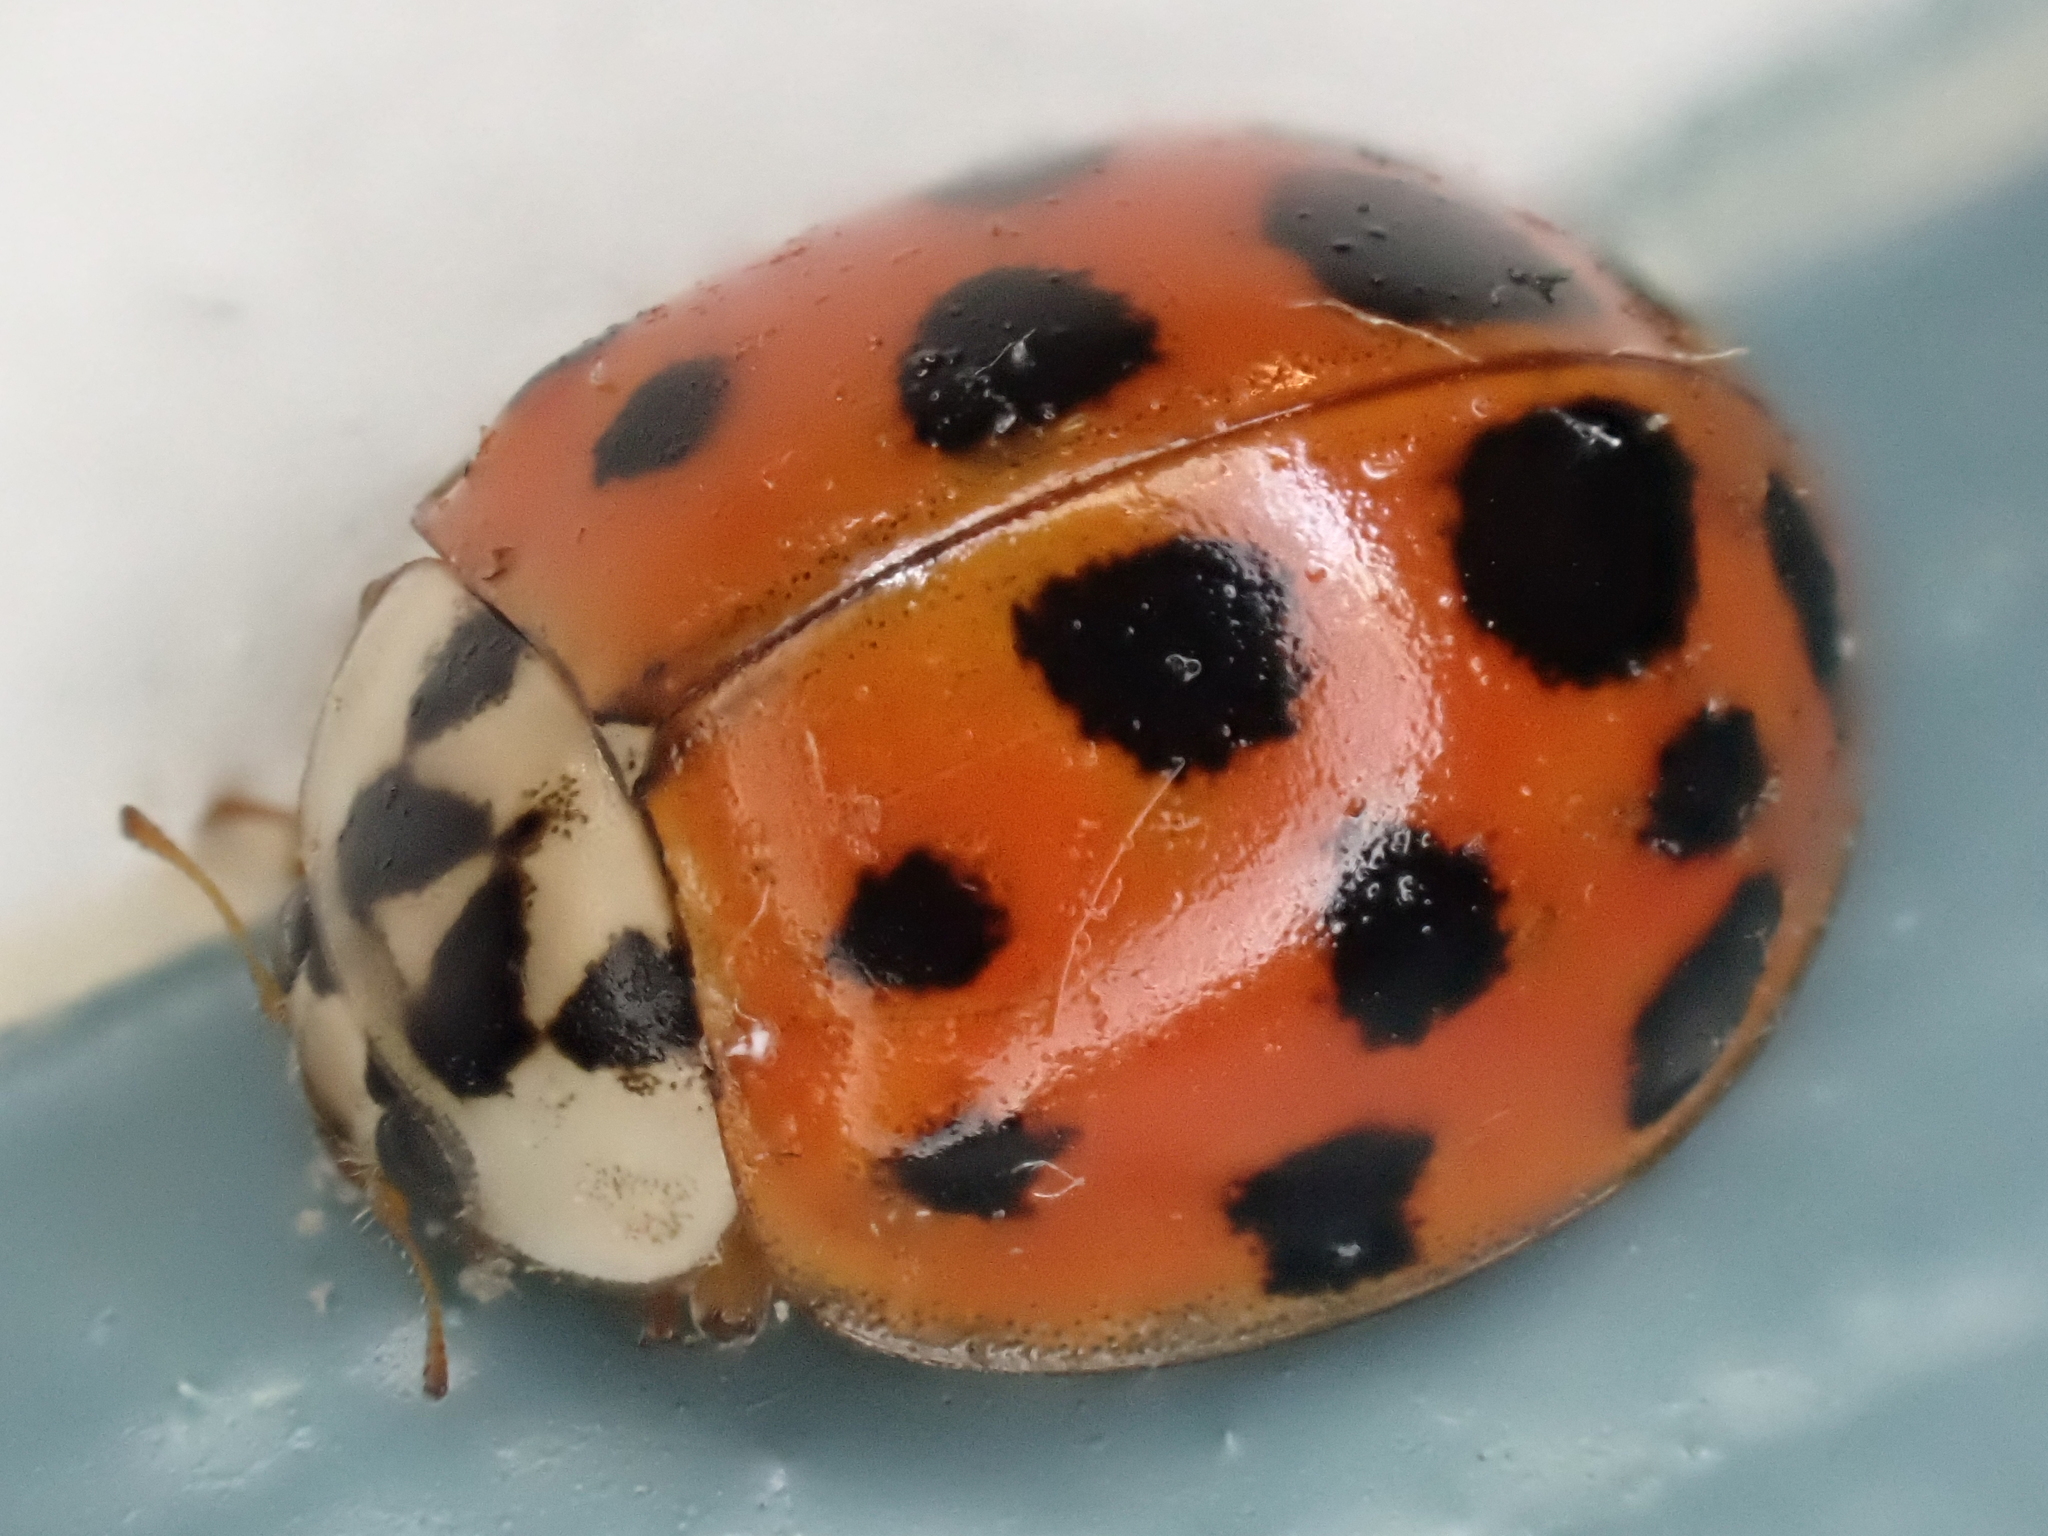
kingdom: Animalia
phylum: Arthropoda
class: Insecta
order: Coleoptera
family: Coccinellidae
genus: Harmonia
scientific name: Harmonia axyridis
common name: Harlequin ladybird
